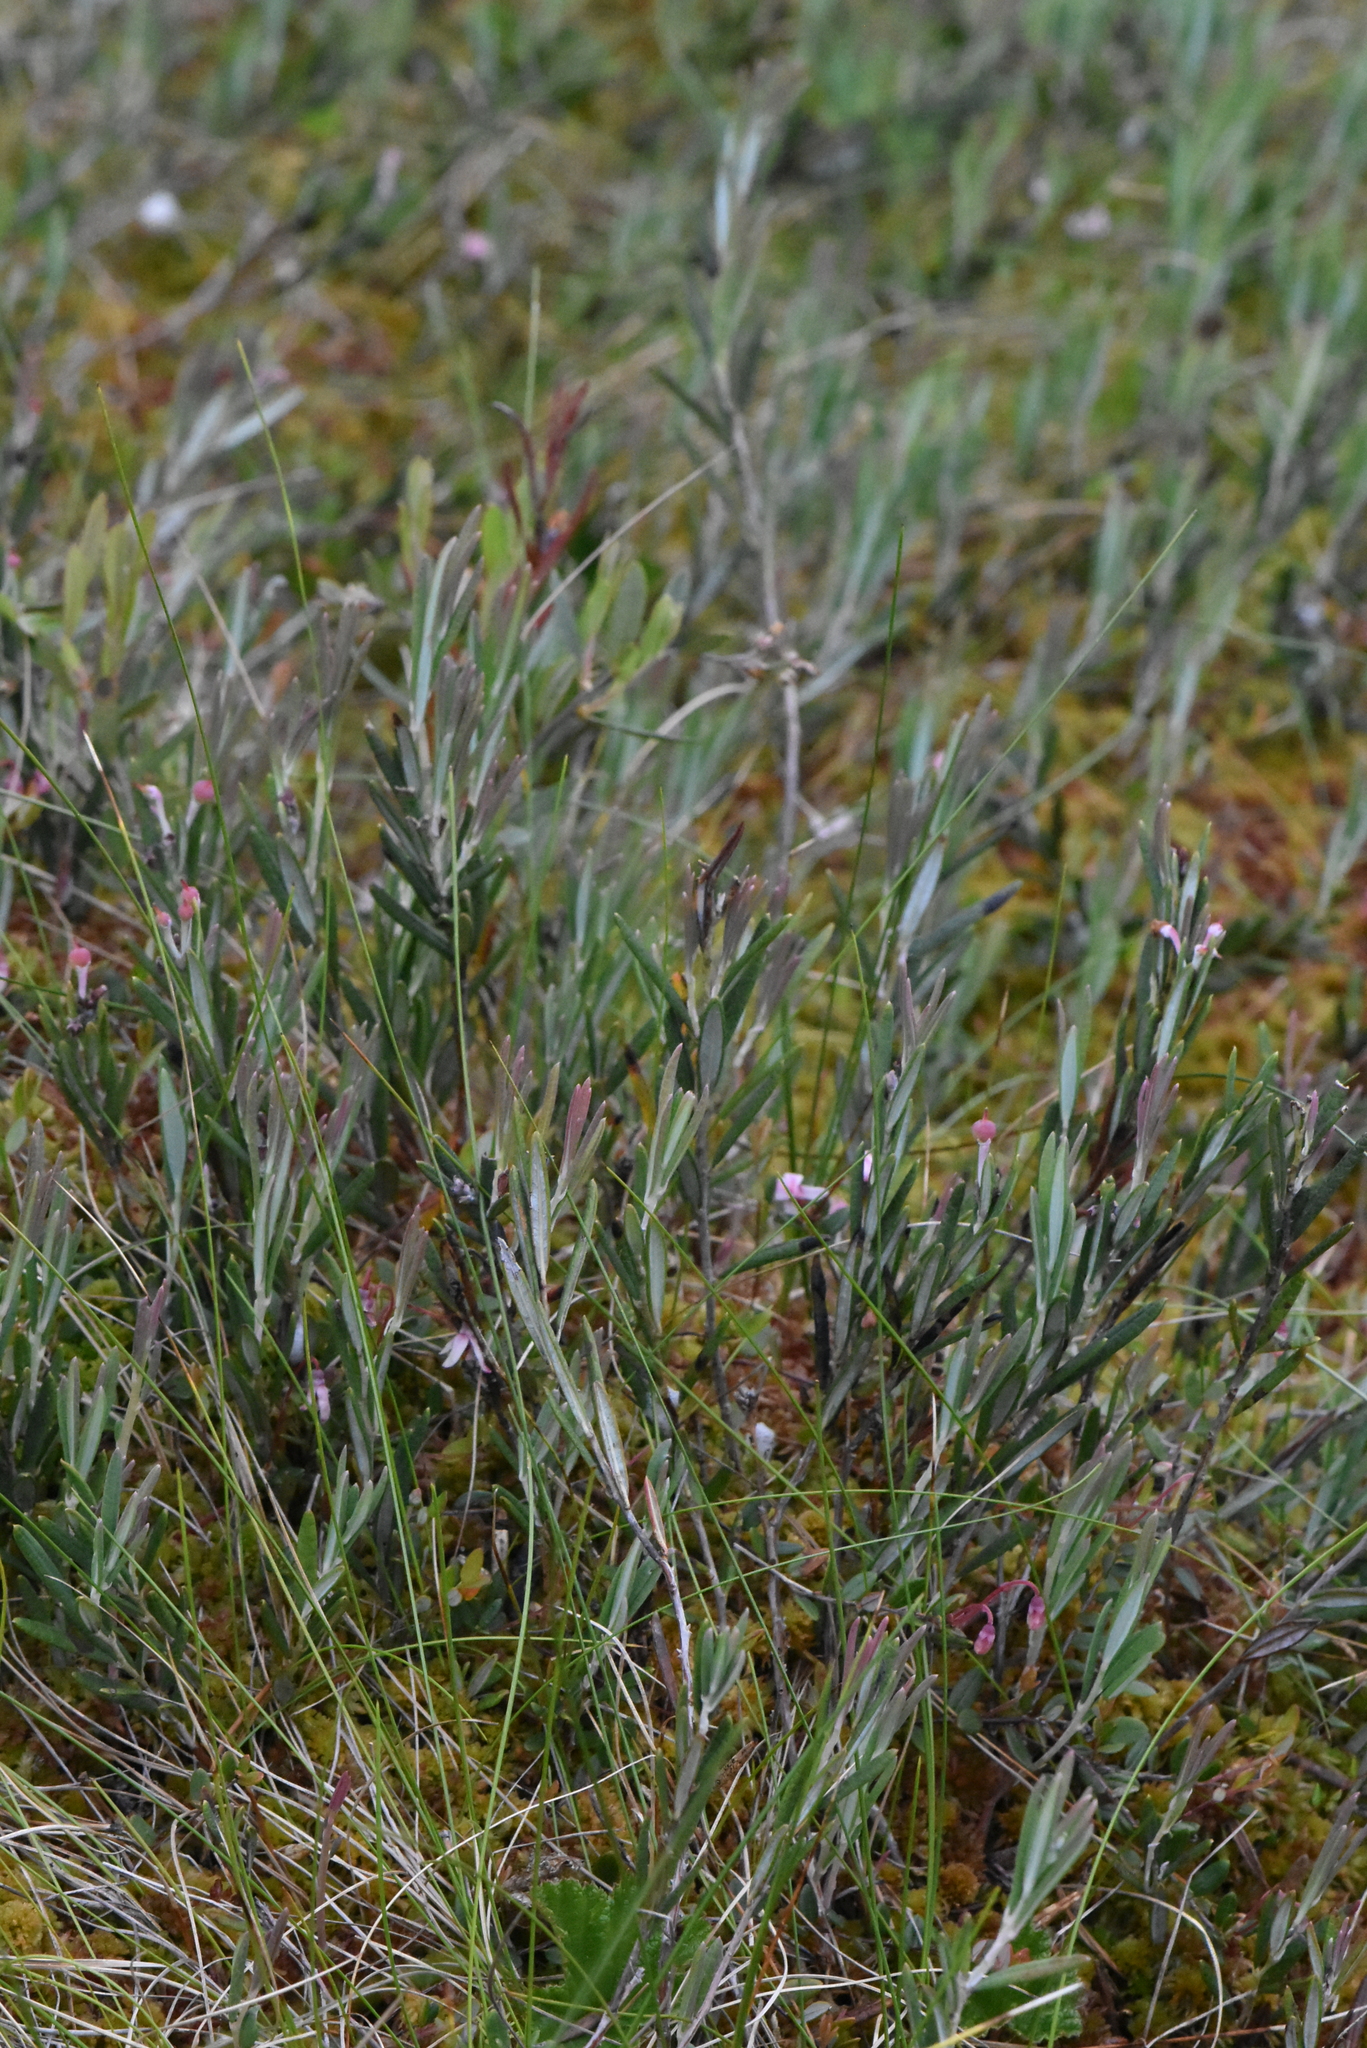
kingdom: Plantae
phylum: Tracheophyta
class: Magnoliopsida
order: Ericales
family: Ericaceae
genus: Andromeda
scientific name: Andromeda polifolia
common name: Bog-rosemary
